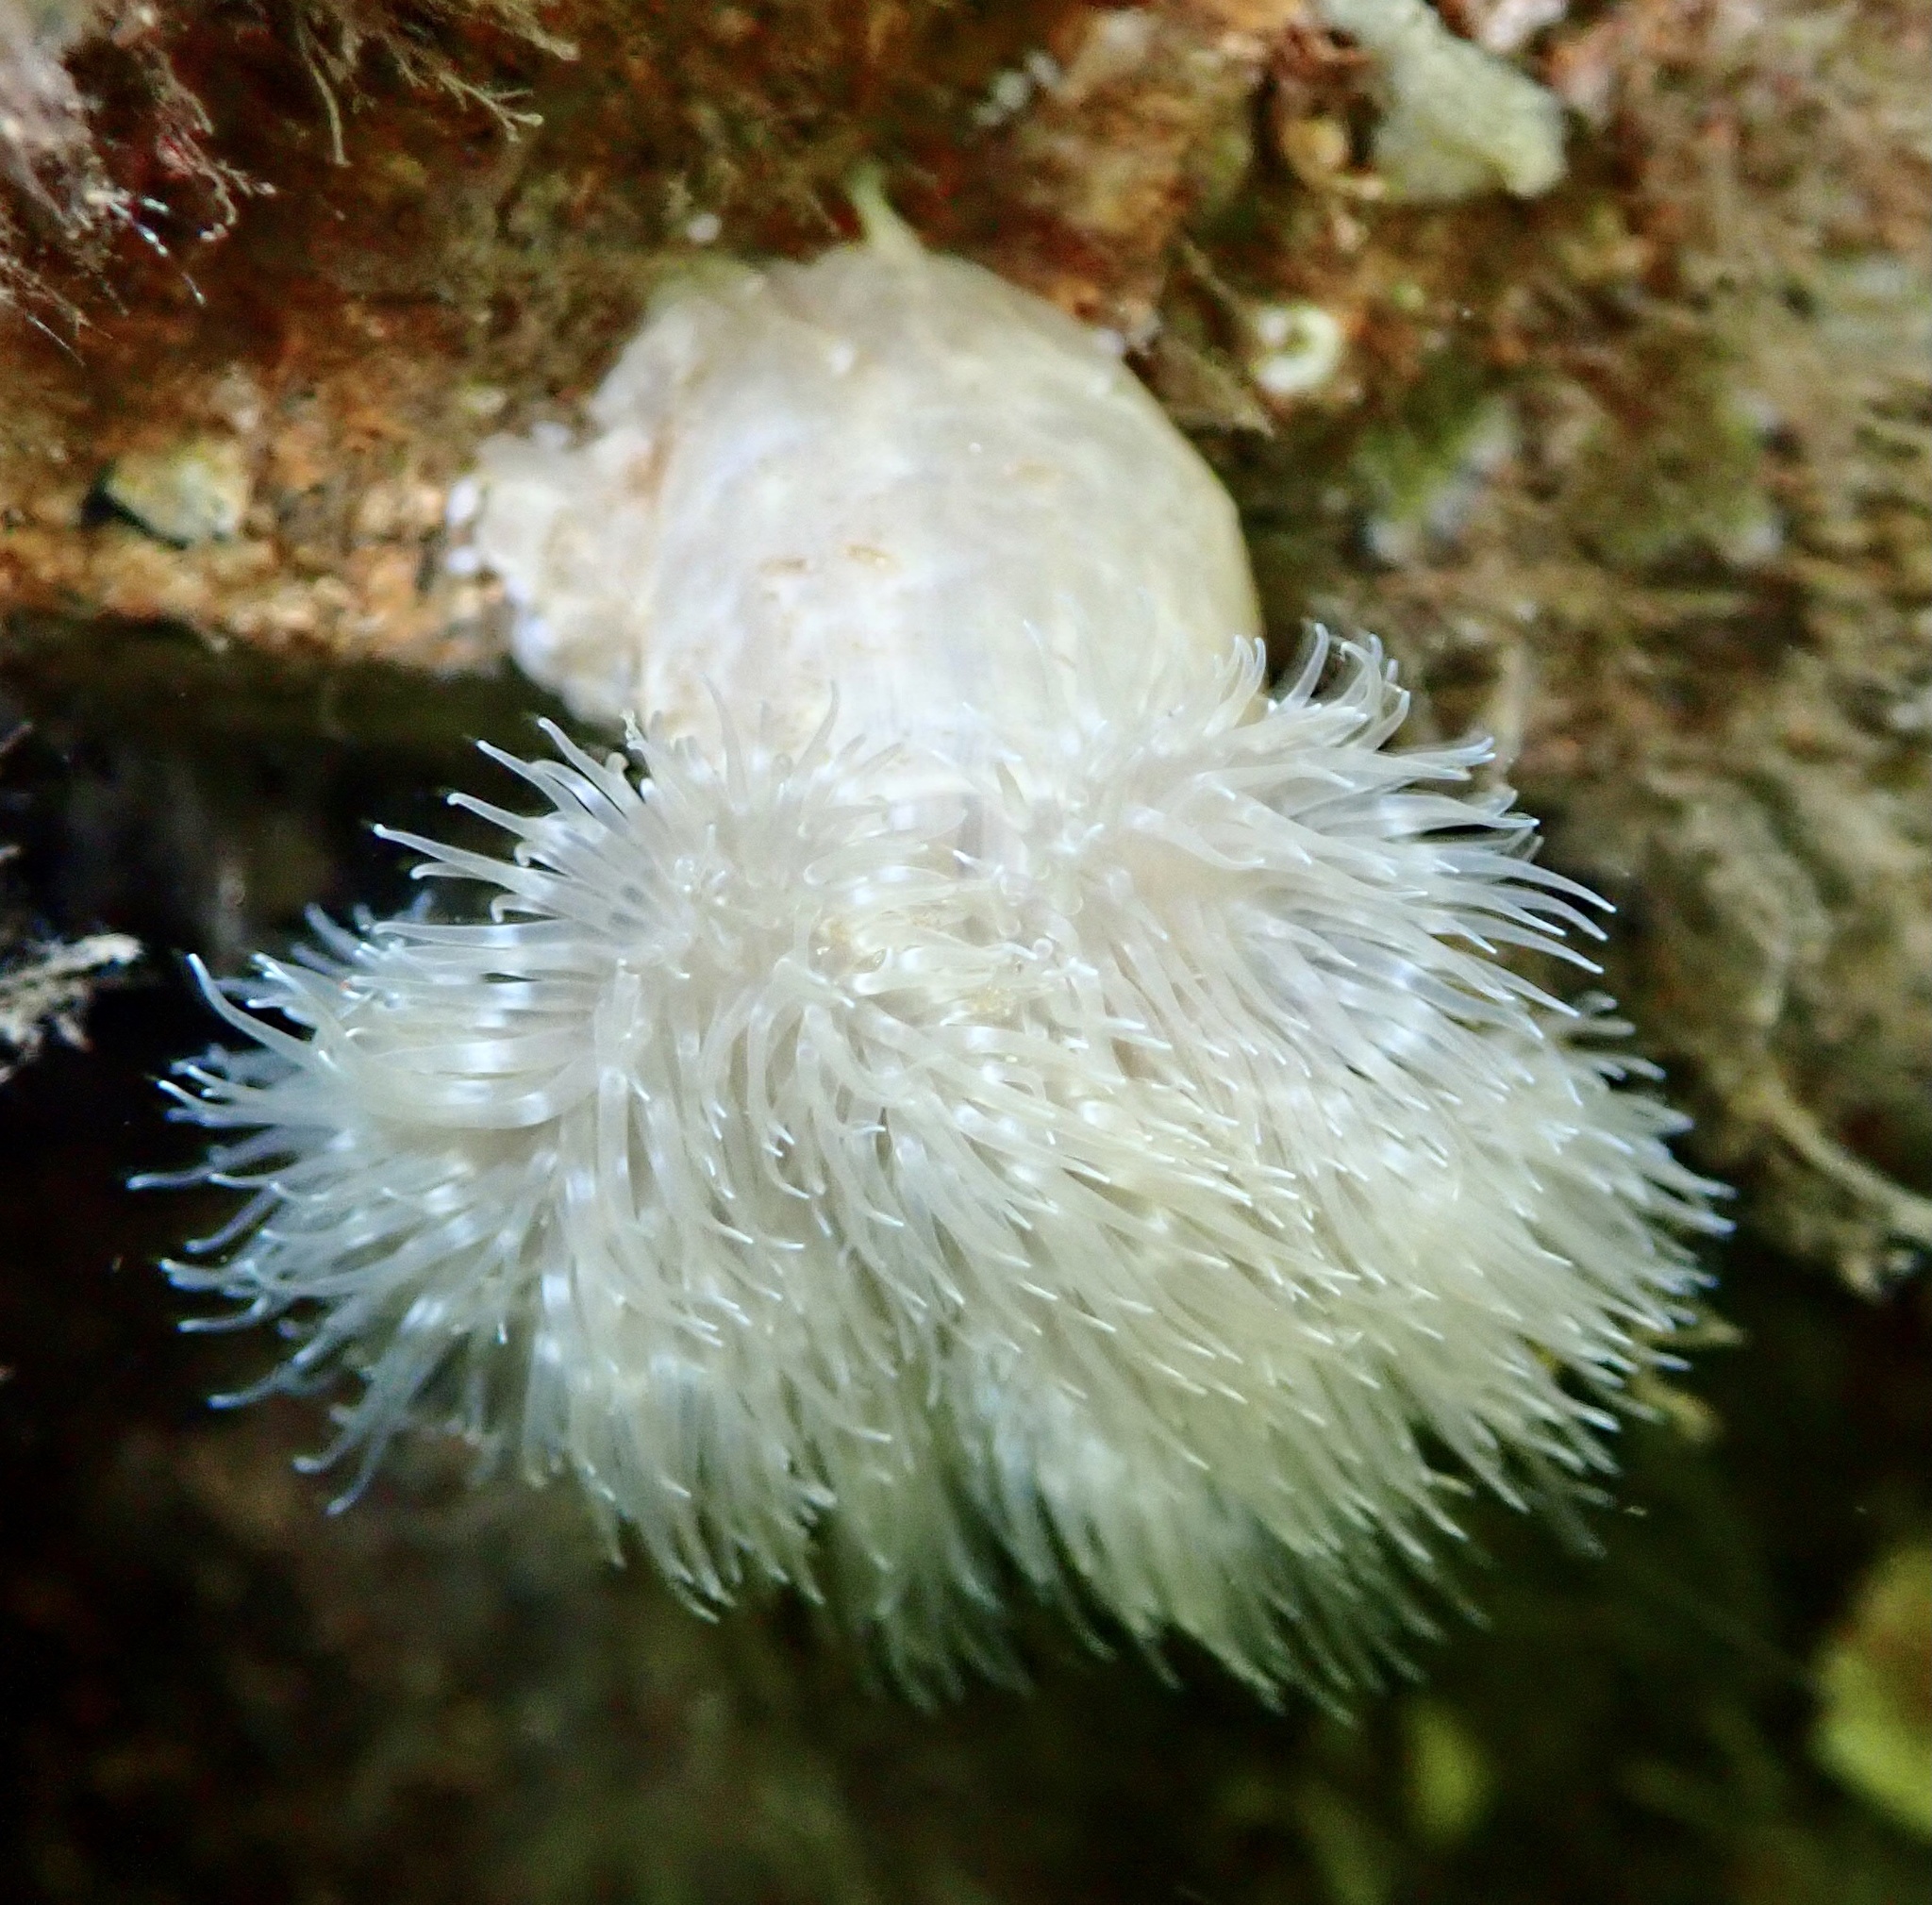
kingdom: Animalia
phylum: Cnidaria
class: Anthozoa
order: Actiniaria
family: Metridiidae
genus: Metridium
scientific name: Metridium senile
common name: Clonal plumose anemone
